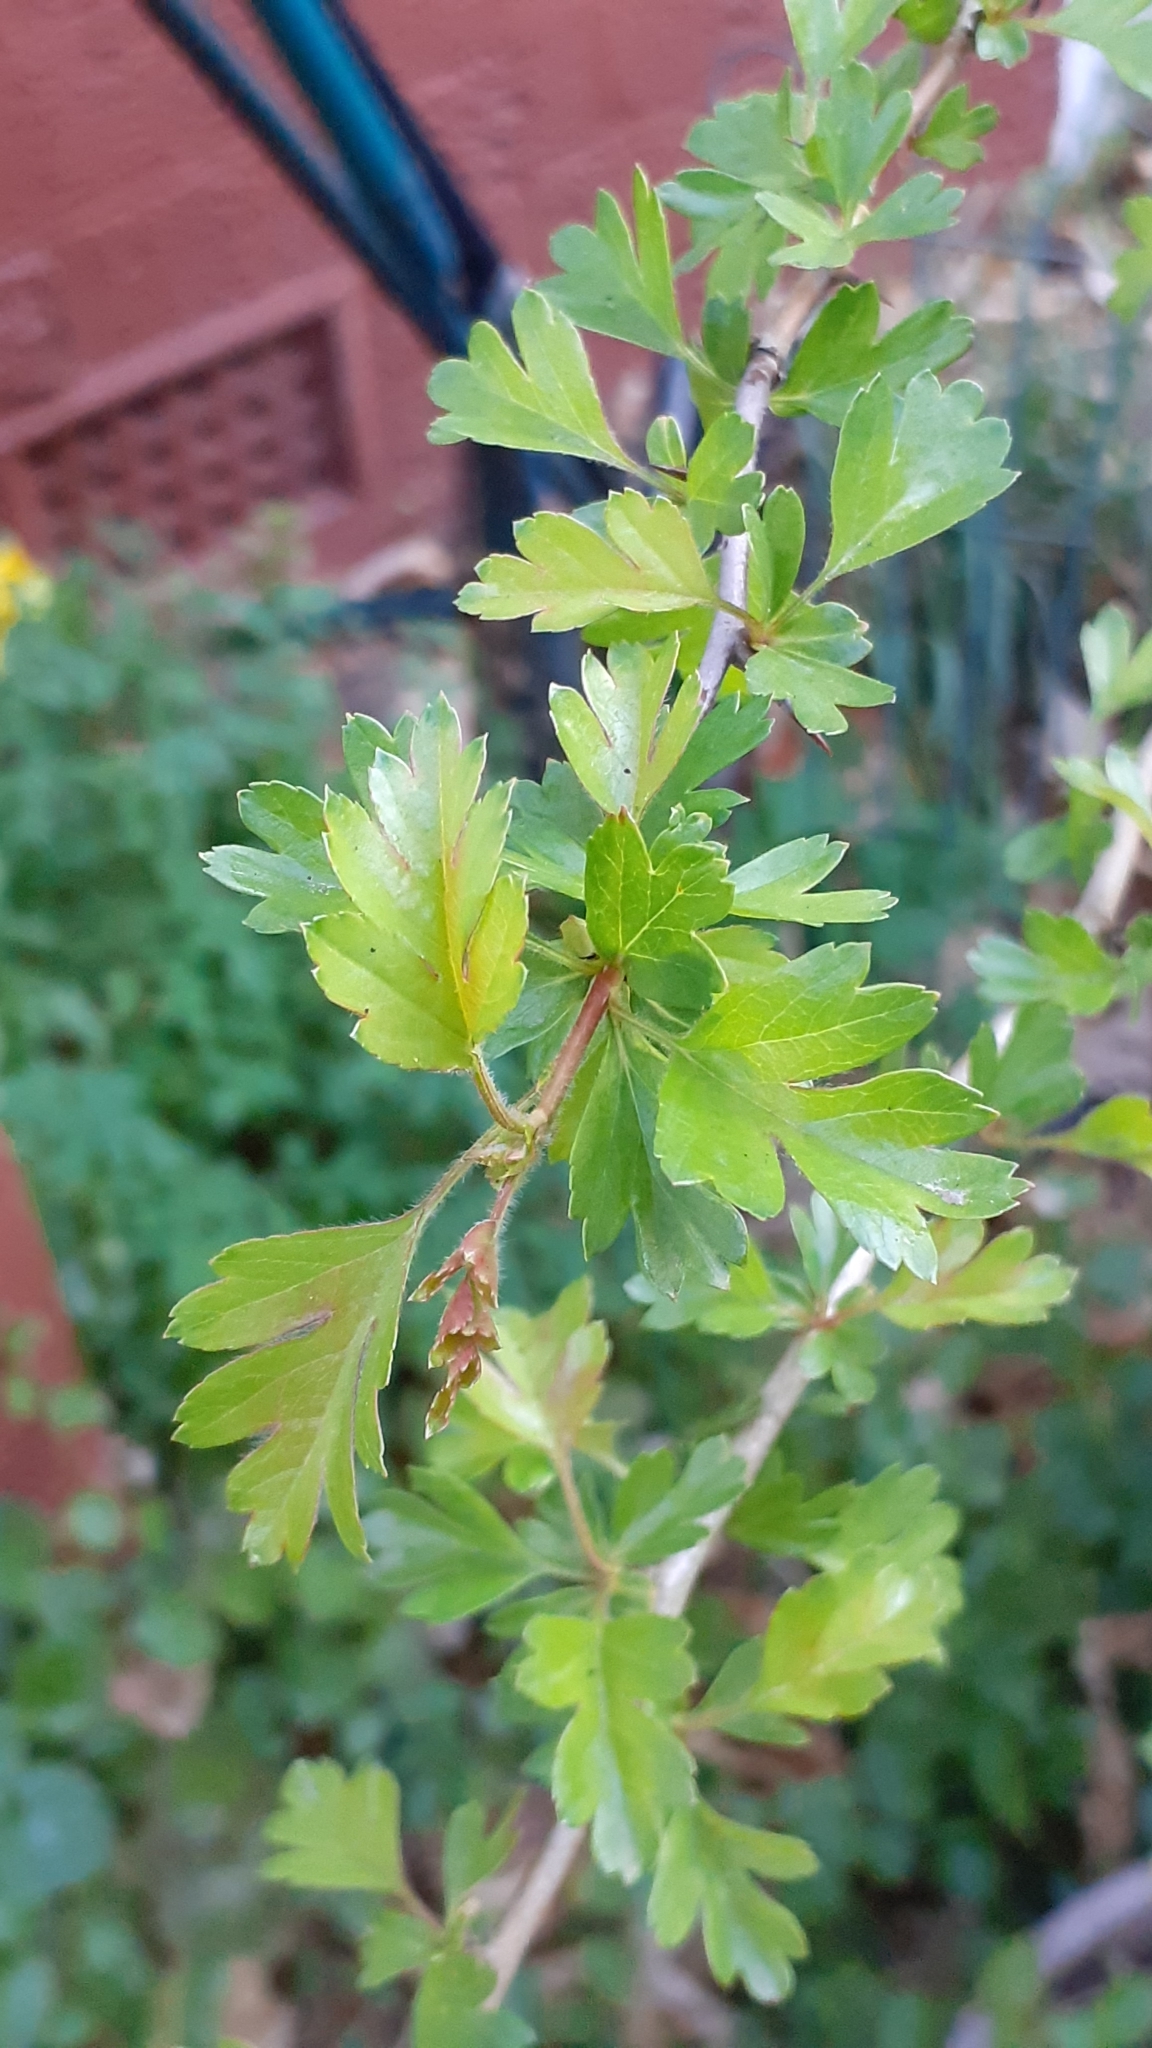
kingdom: Plantae
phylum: Tracheophyta
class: Magnoliopsida
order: Rosales
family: Rosaceae
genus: Crataegus
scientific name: Crataegus monogyna
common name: Hawthorn
